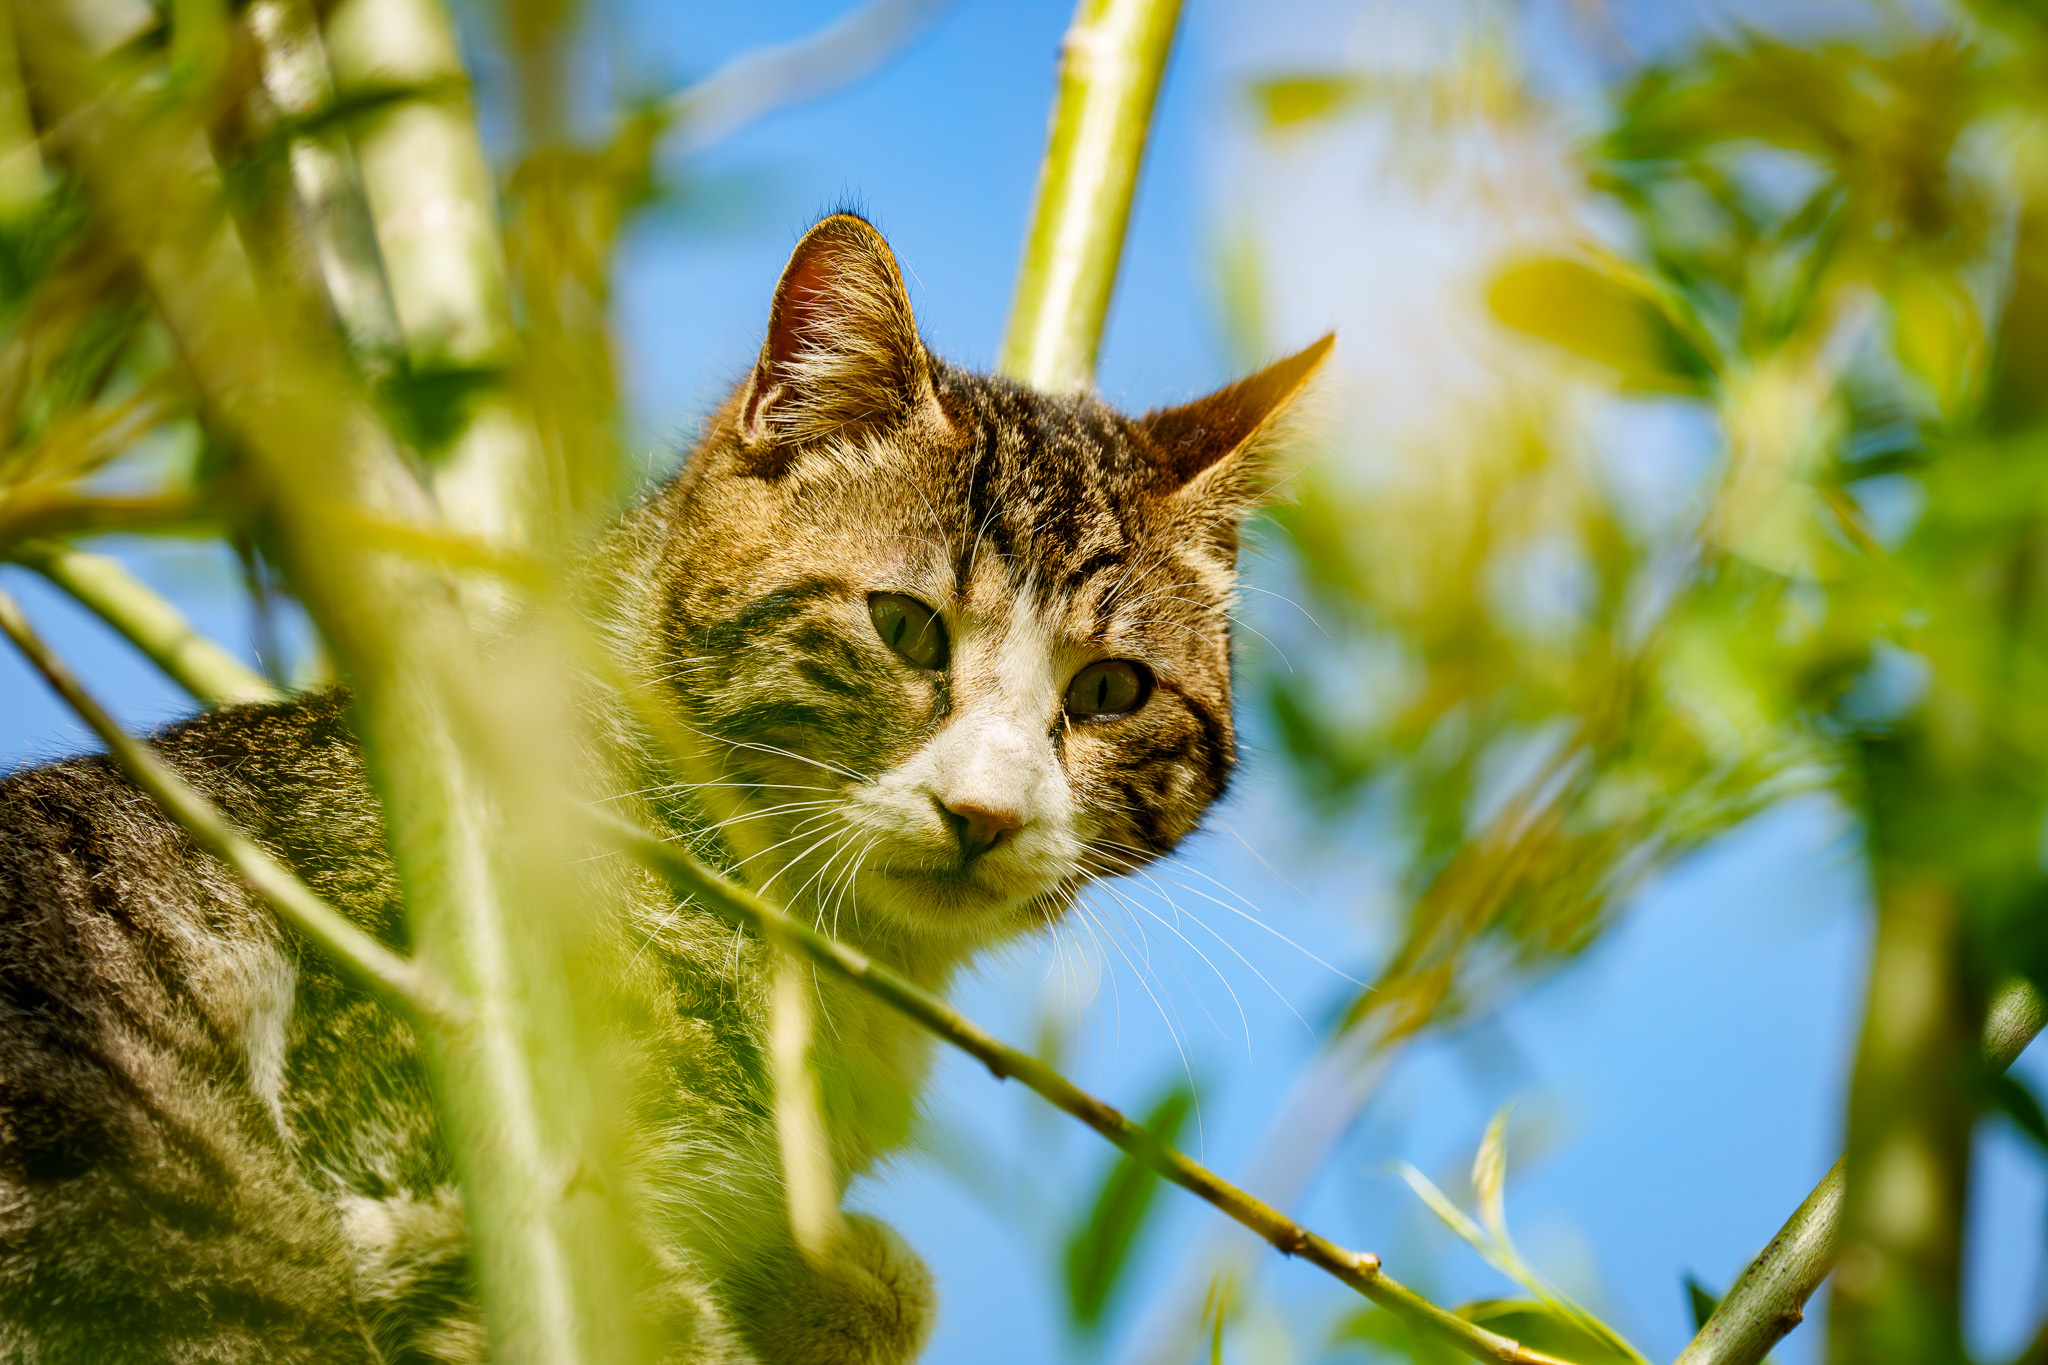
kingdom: Animalia
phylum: Chordata
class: Mammalia
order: Carnivora
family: Felidae
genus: Felis
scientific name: Felis catus
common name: Domestic cat
